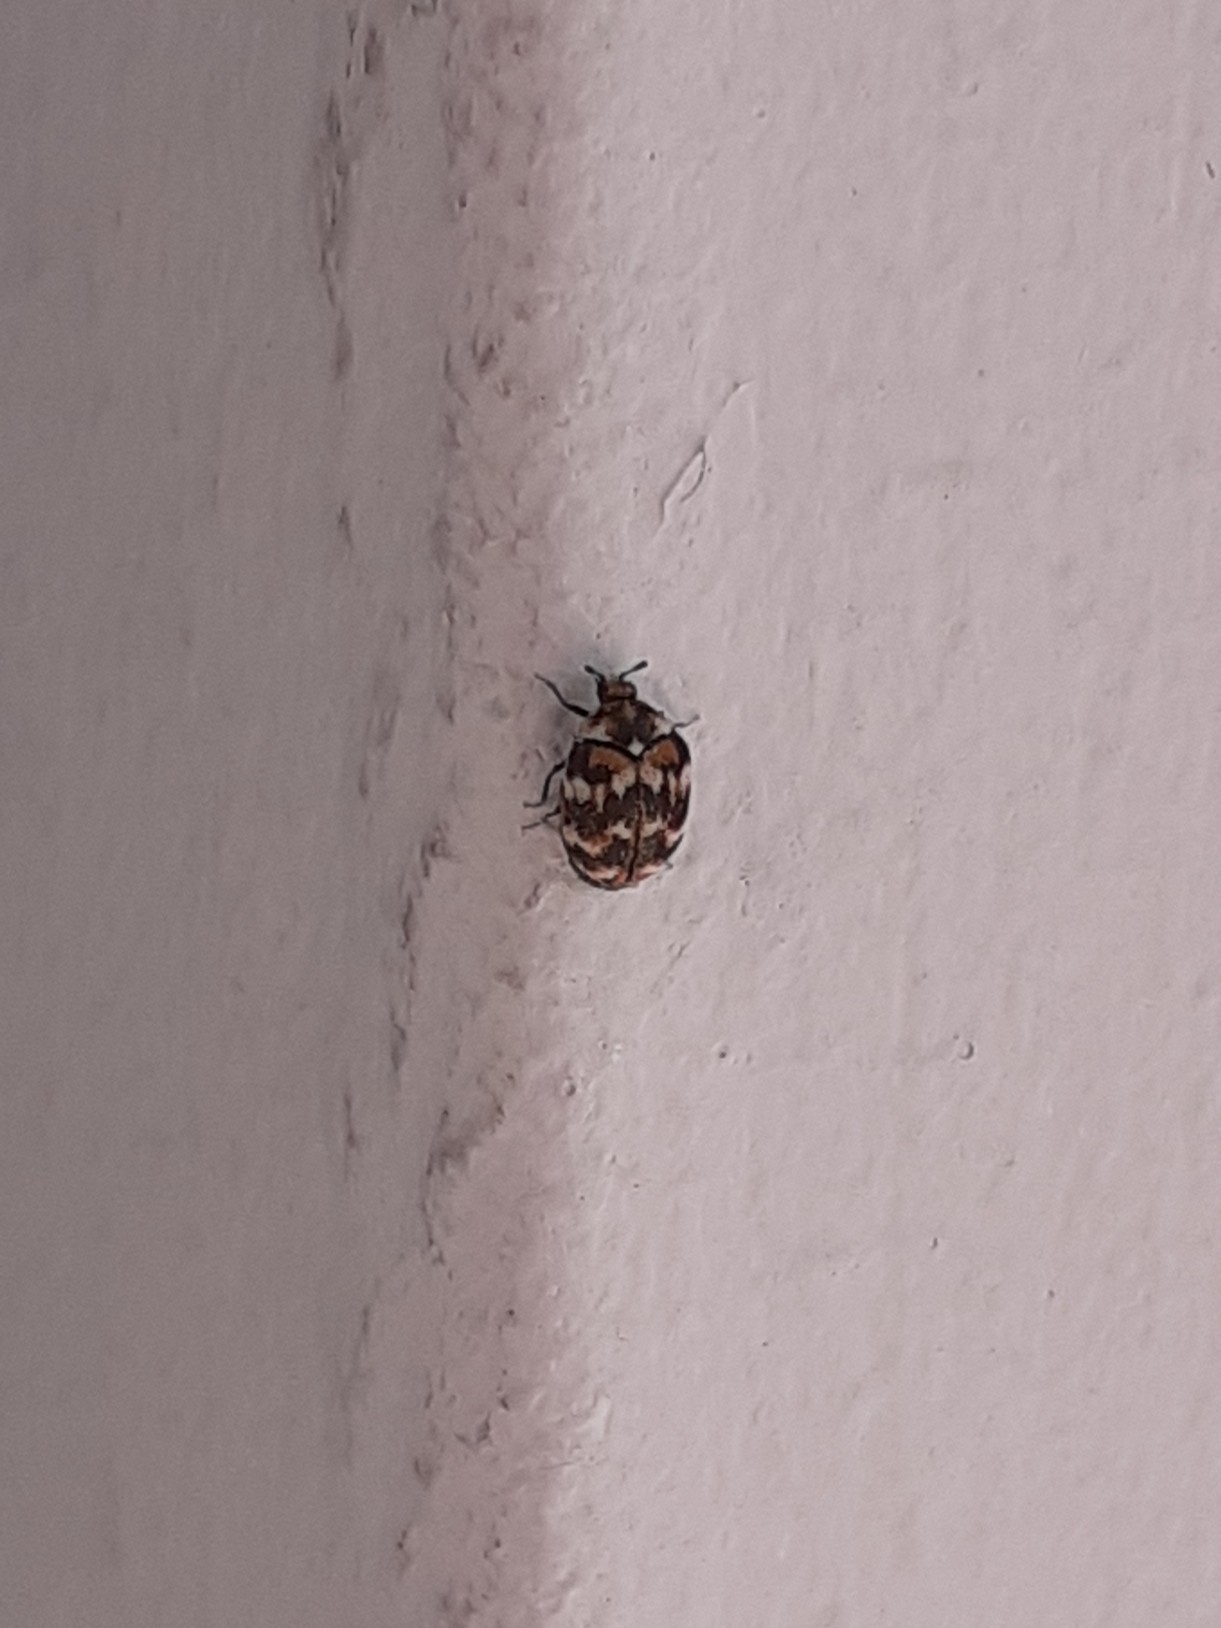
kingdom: Animalia
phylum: Arthropoda
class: Insecta
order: Coleoptera
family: Dermestidae
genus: Anthrenus
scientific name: Anthrenus verbasci
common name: Varied carpet beetle
